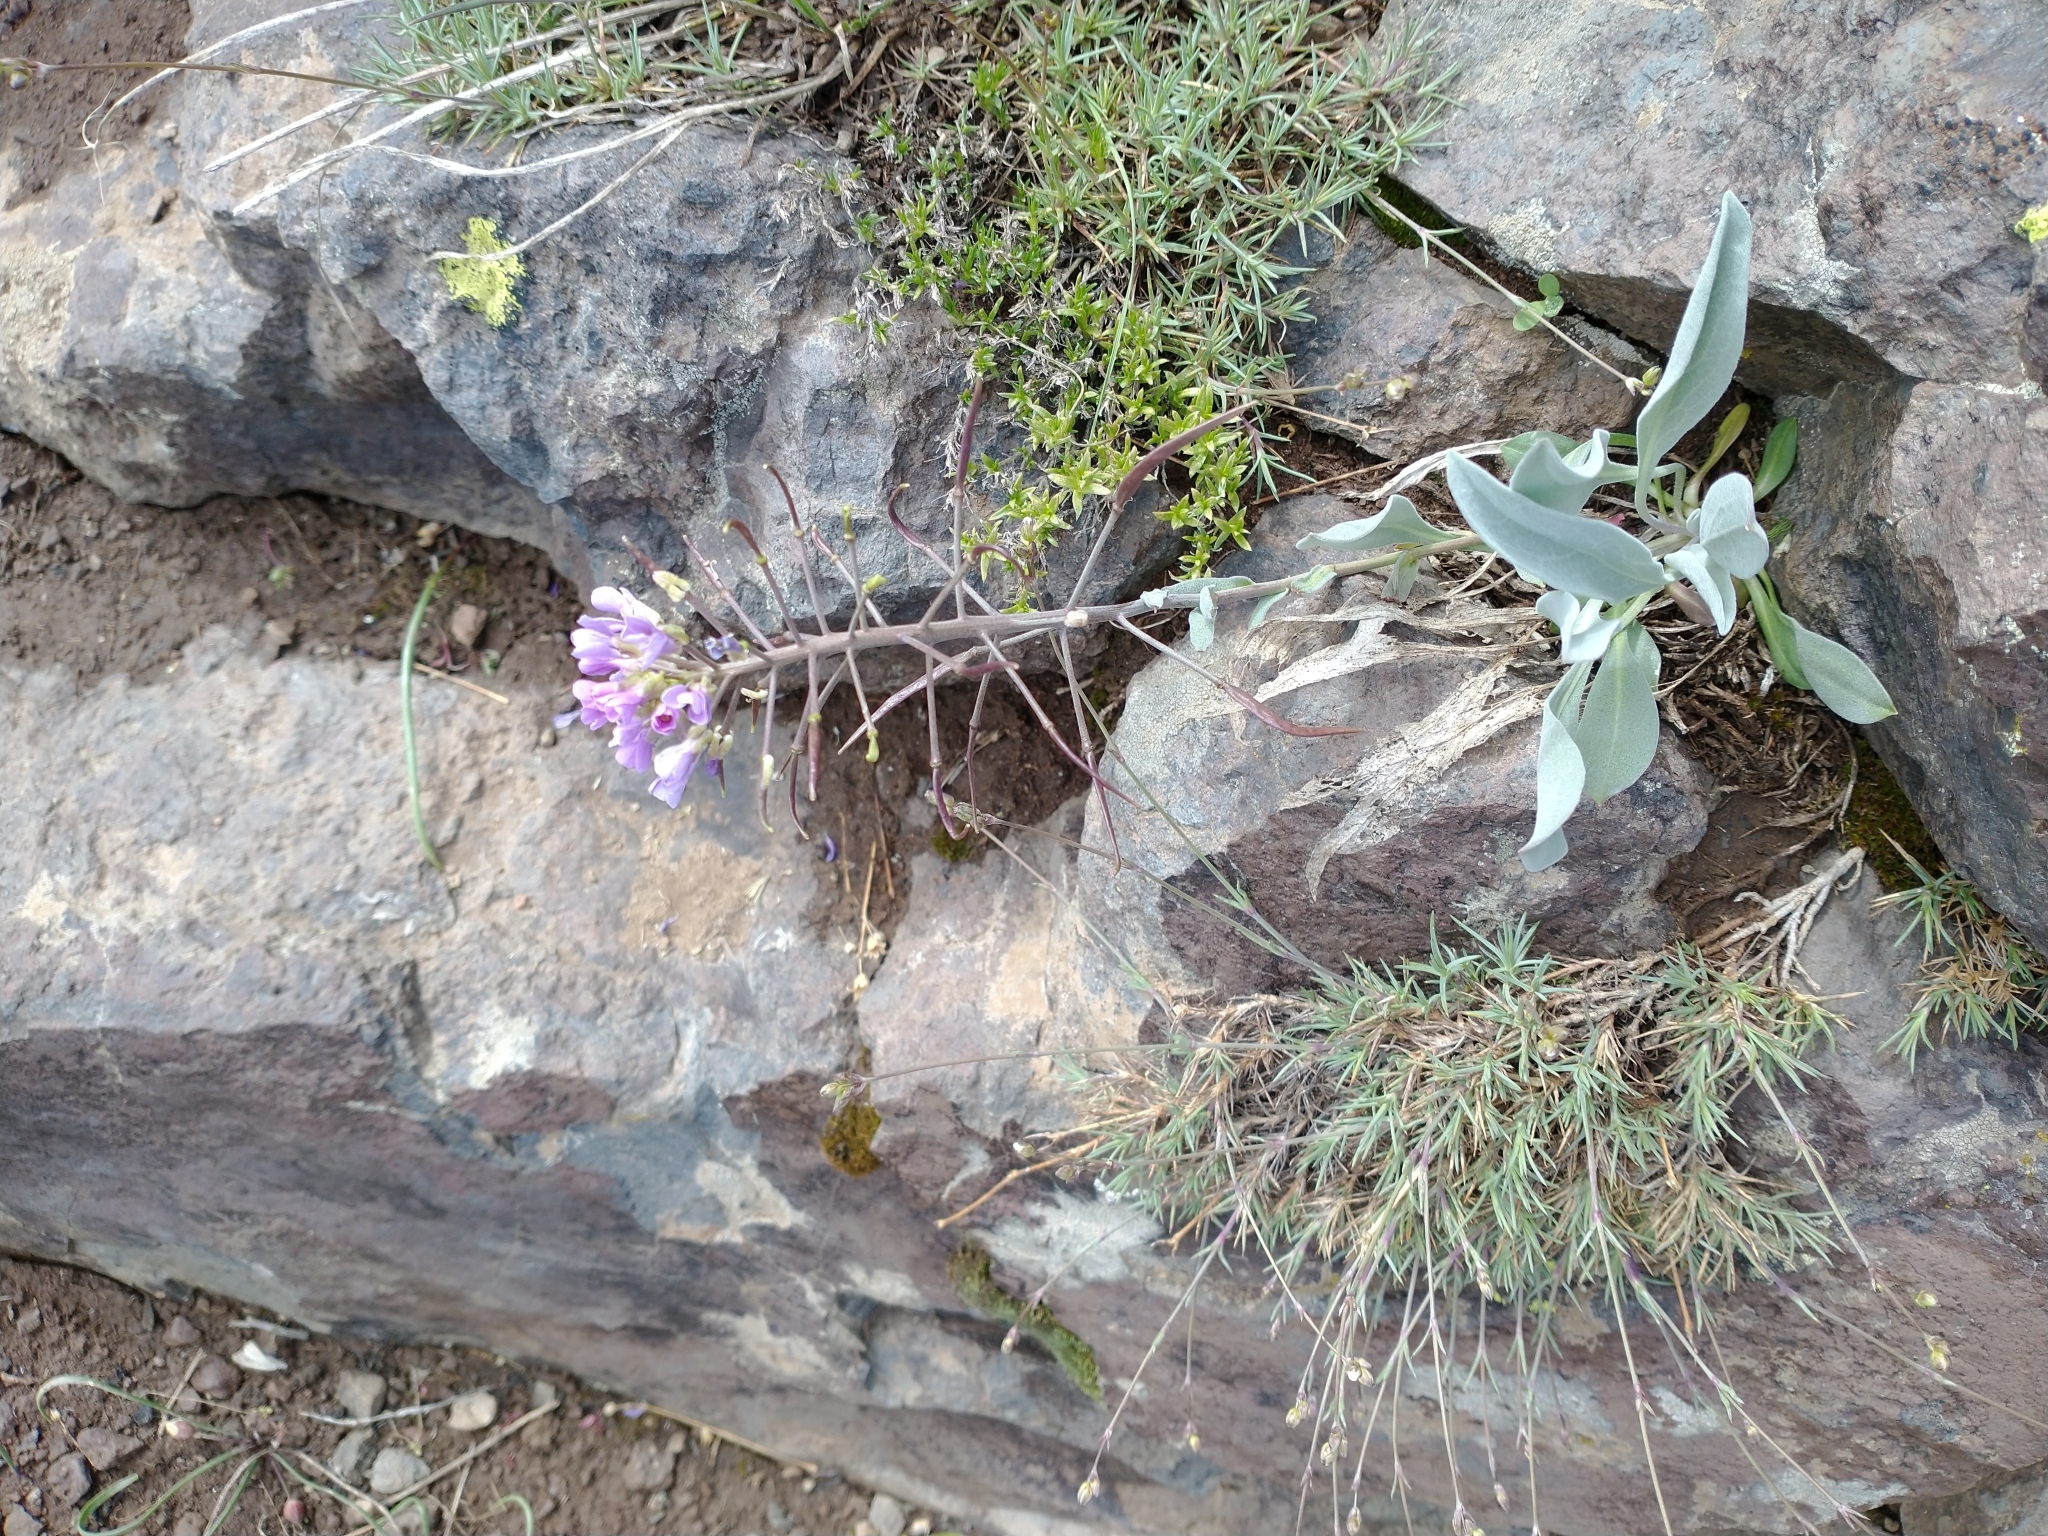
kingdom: Plantae
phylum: Tracheophyta
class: Magnoliopsida
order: Brassicales
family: Brassicaceae
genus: Phoenicaulis
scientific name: Phoenicaulis cheiranthoides
